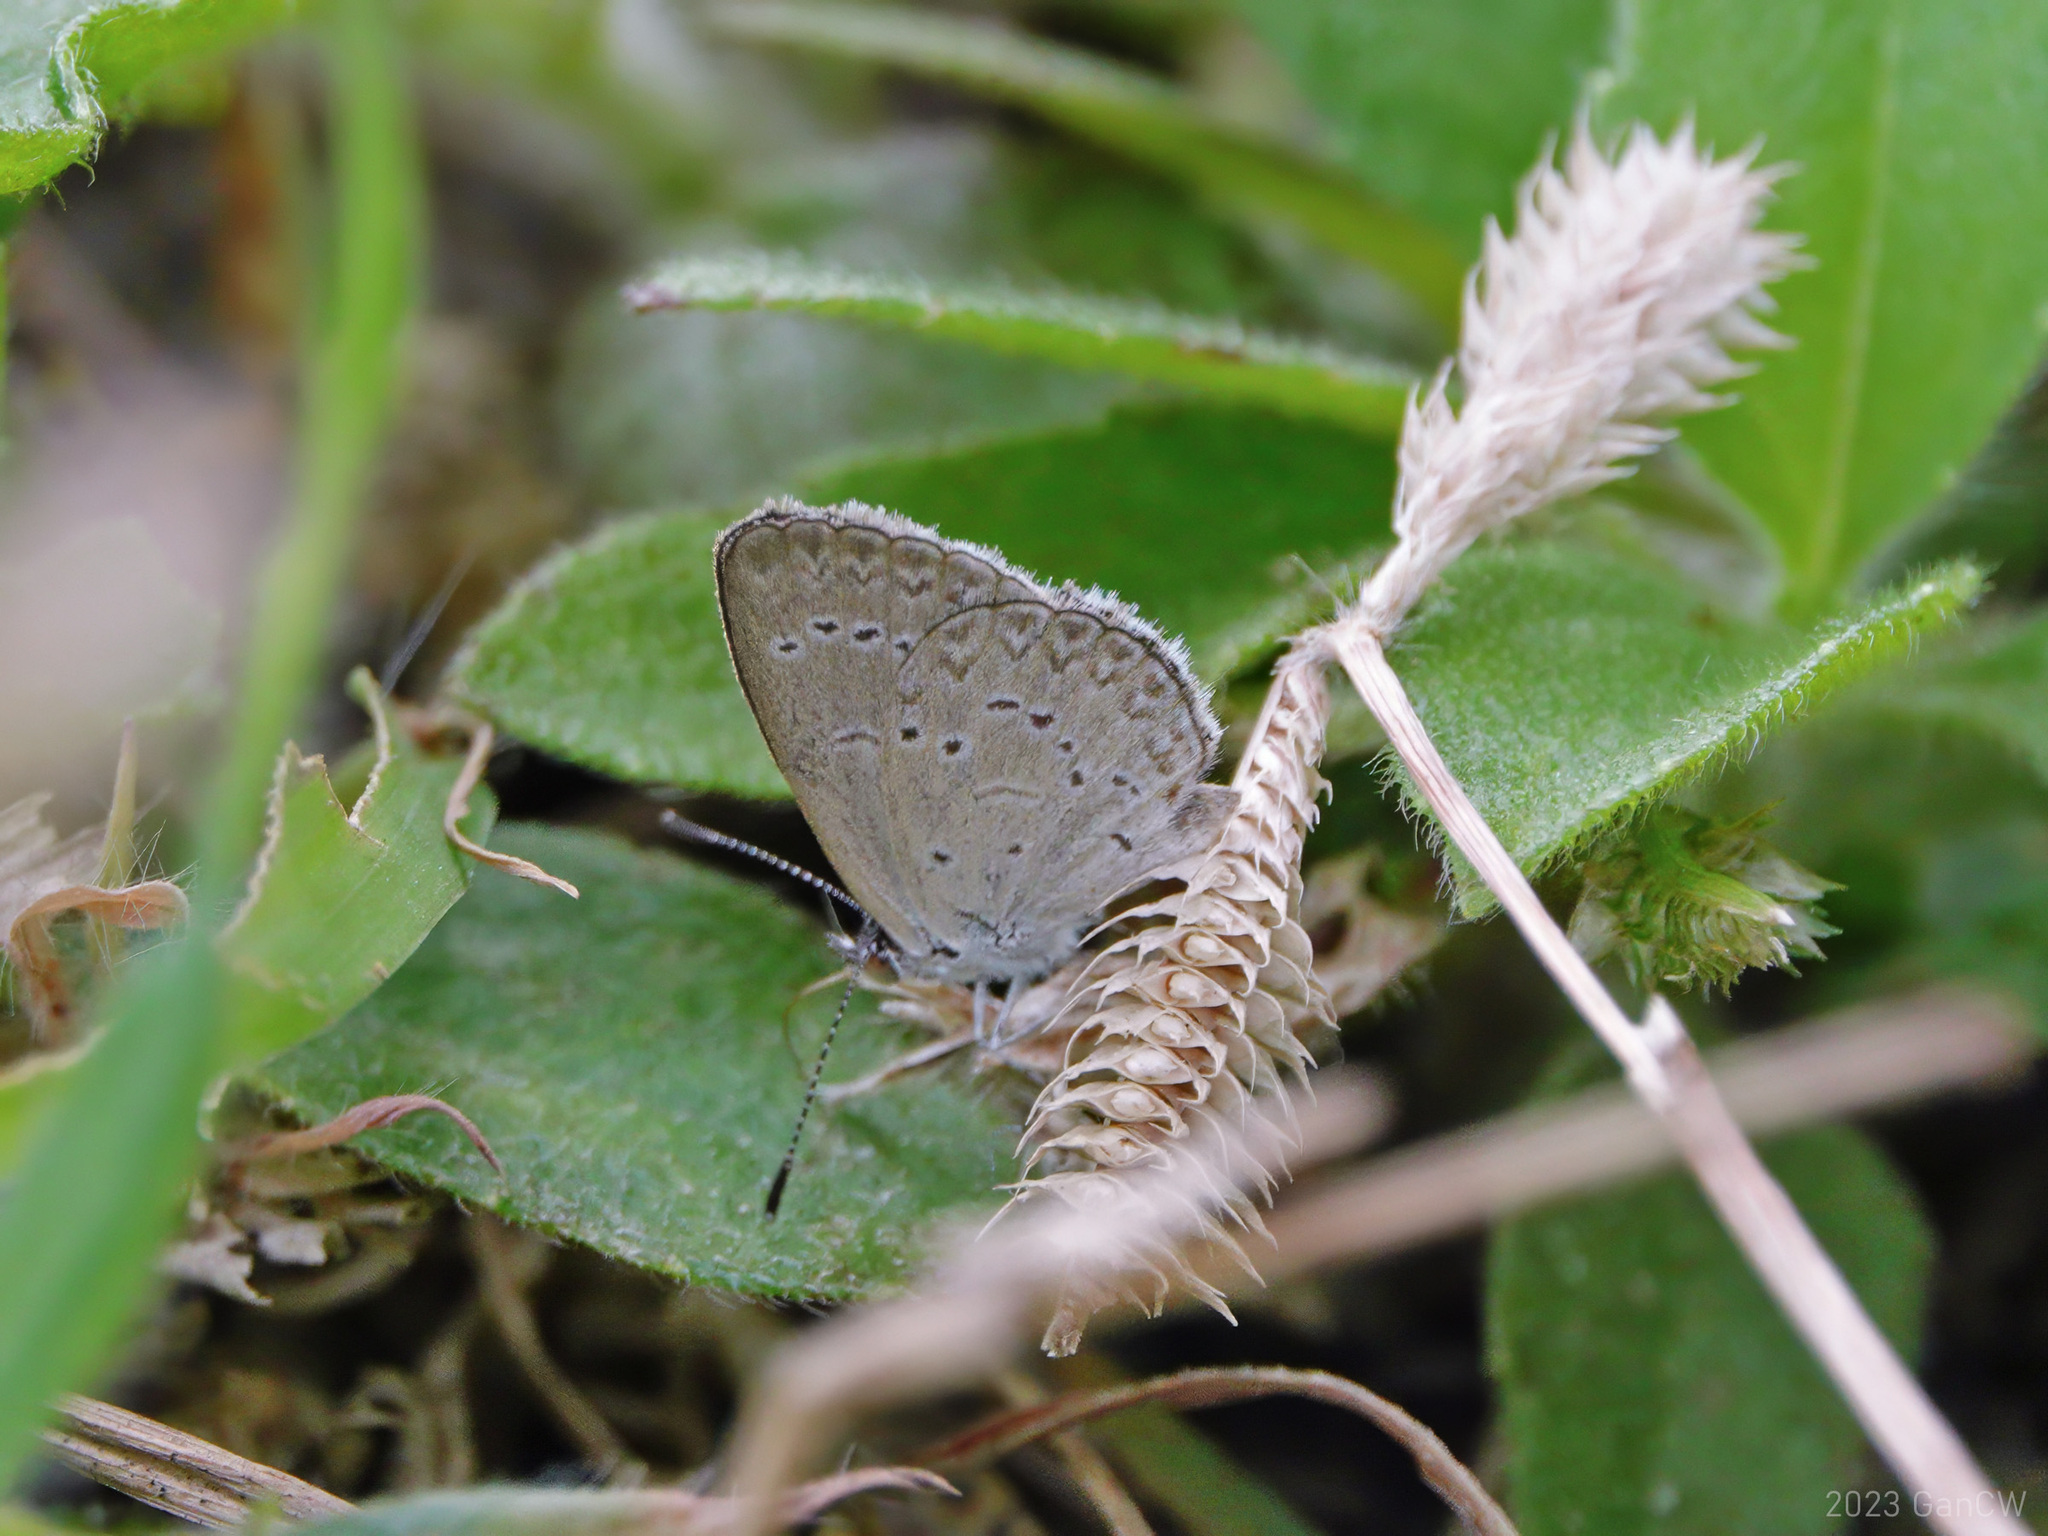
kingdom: Animalia
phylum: Arthropoda
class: Insecta
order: Lepidoptera
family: Lycaenidae
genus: Zizina
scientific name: Zizina otis
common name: Lesser grass blue
